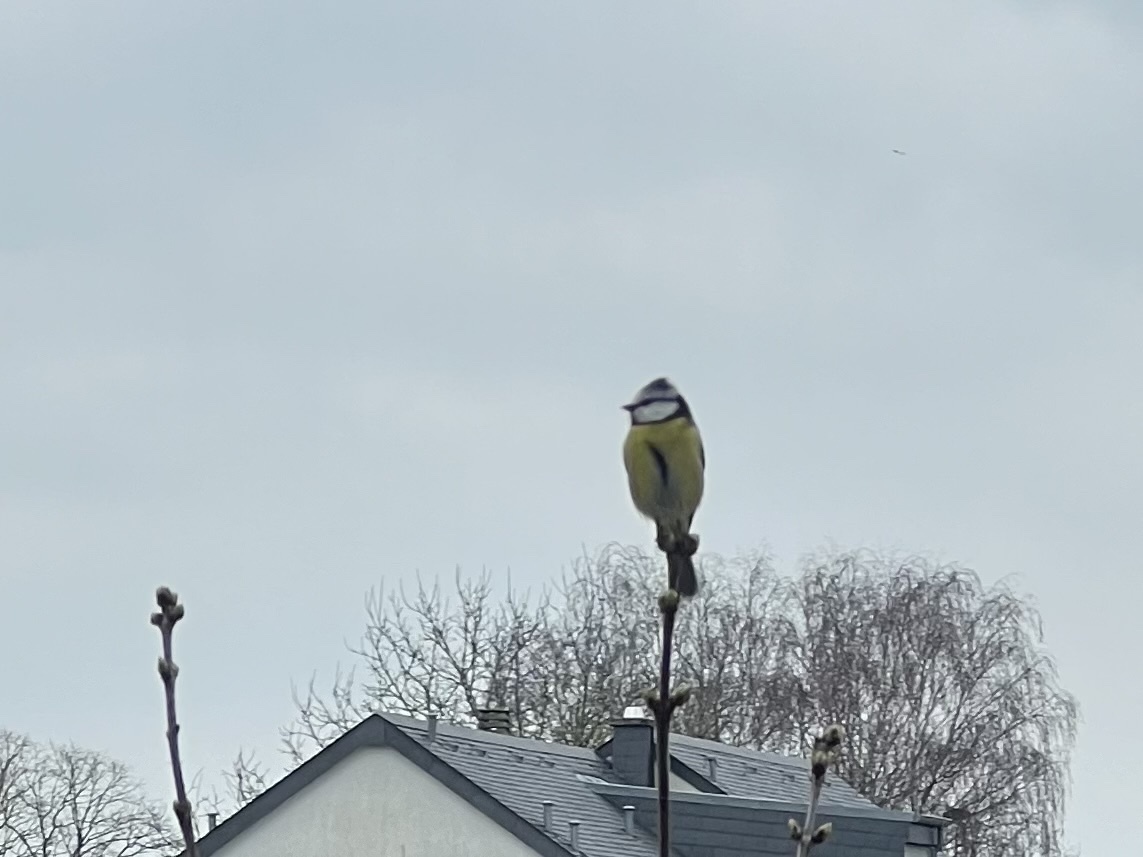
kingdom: Animalia
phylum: Chordata
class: Aves
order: Passeriformes
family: Paridae
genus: Cyanistes
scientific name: Cyanistes caeruleus
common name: Eurasian blue tit
